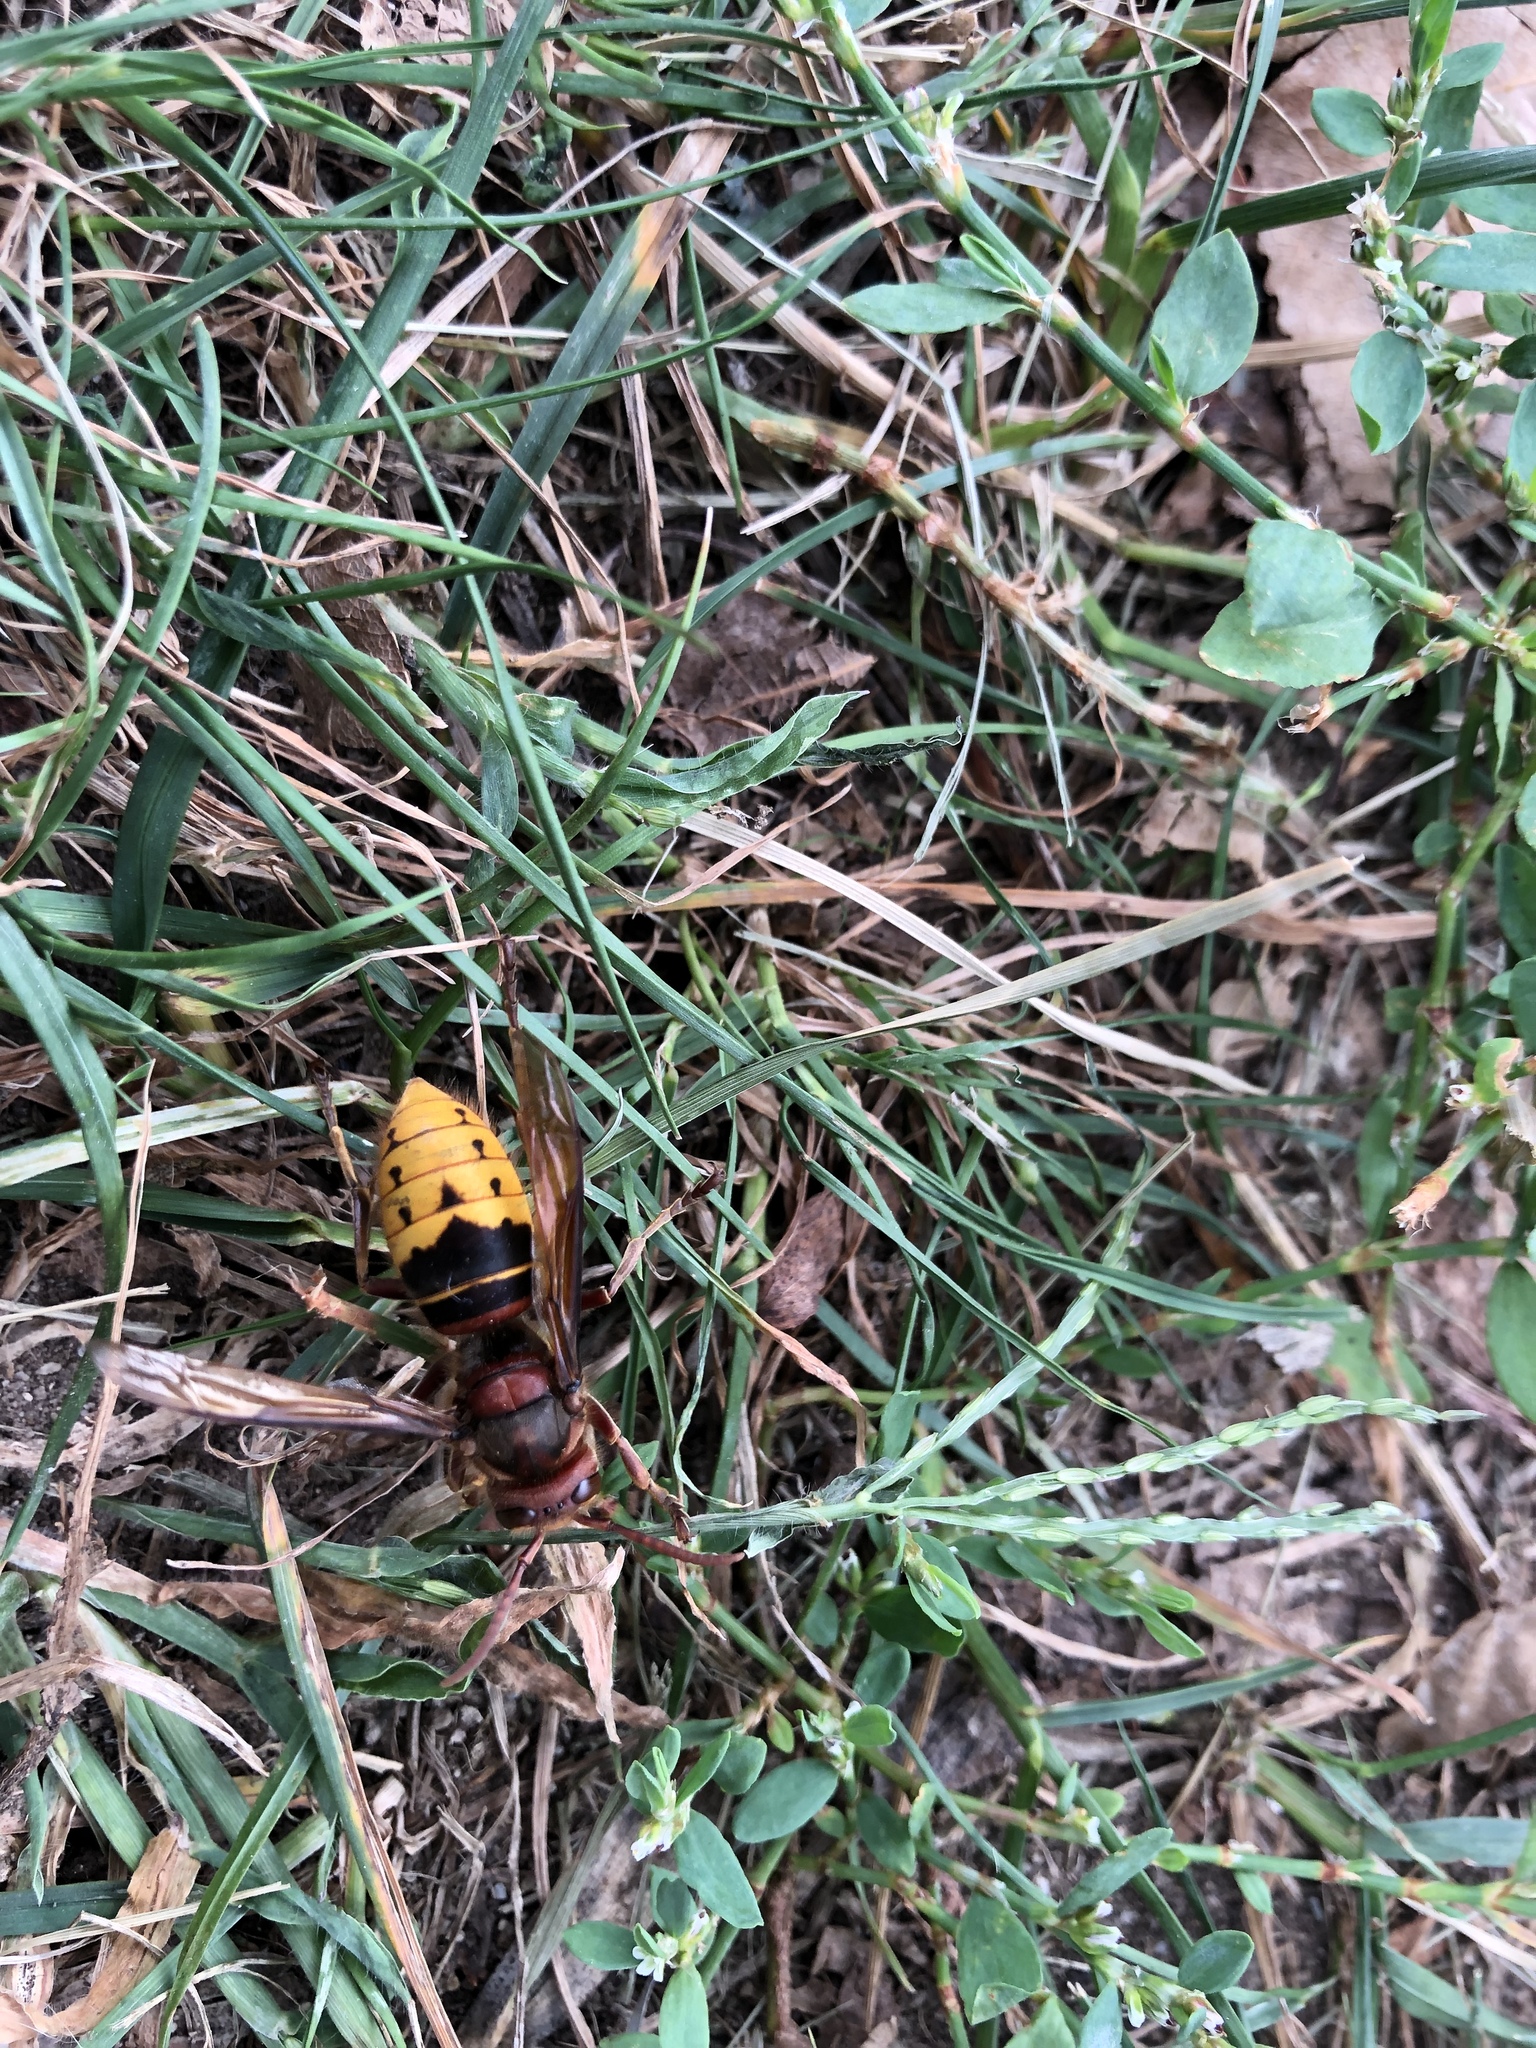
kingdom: Animalia
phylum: Arthropoda
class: Insecta
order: Hymenoptera
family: Vespidae
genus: Vespa
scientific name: Vespa crabro
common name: Hornet
